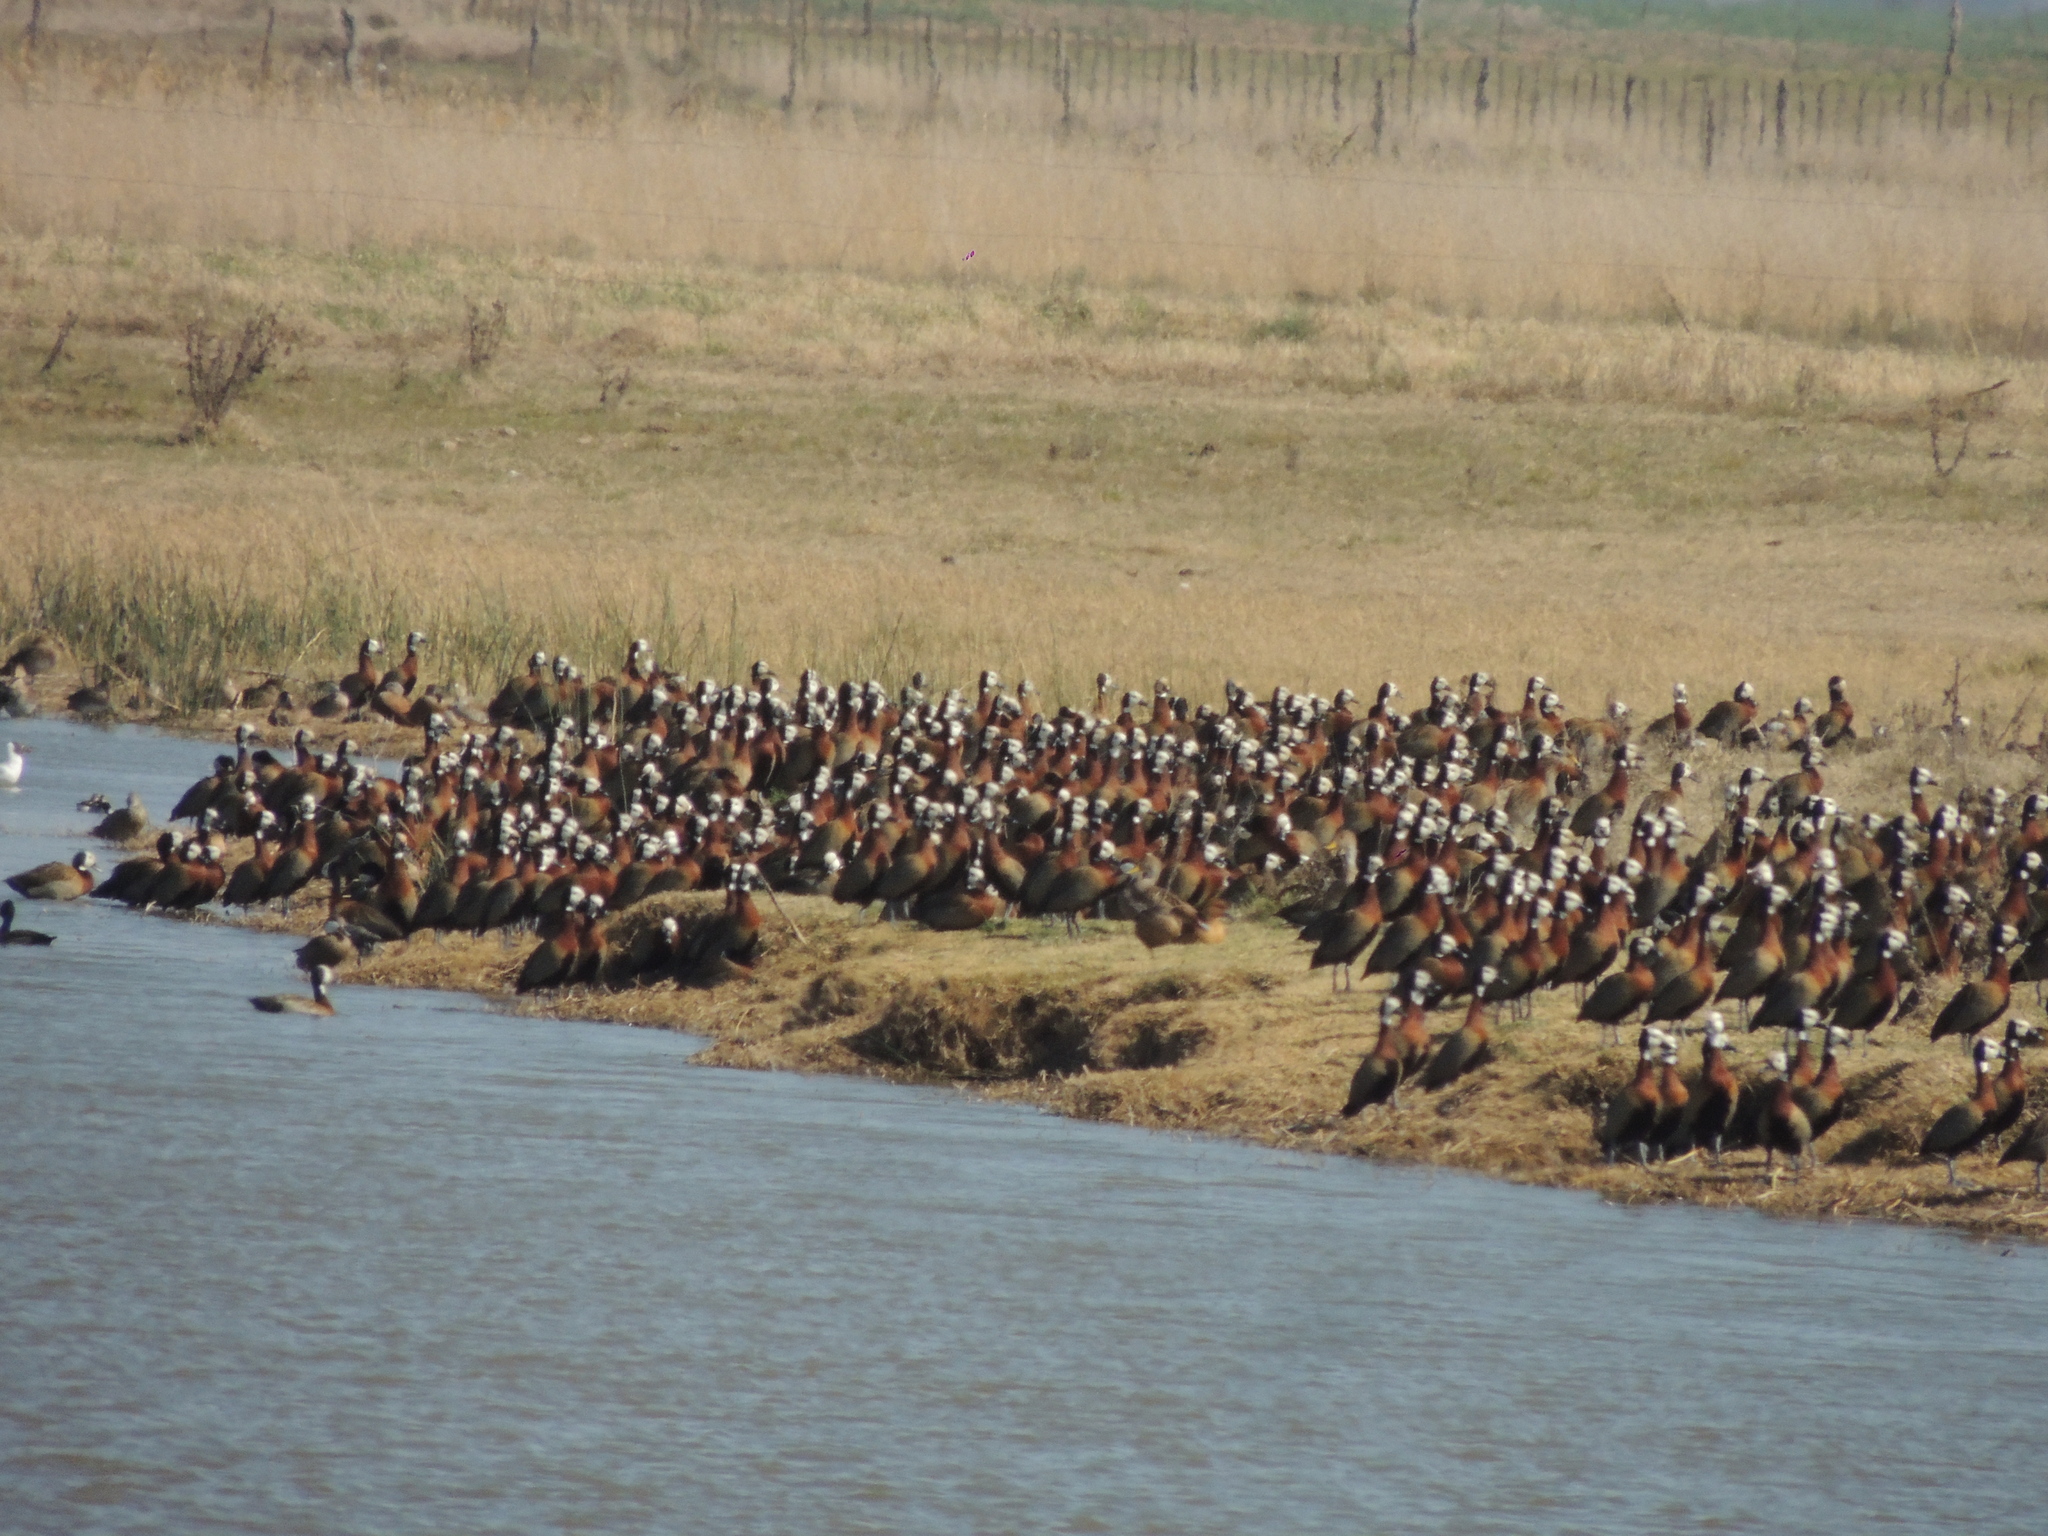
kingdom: Animalia
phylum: Chordata
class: Aves
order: Anseriformes
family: Anatidae
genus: Dendrocygna
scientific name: Dendrocygna viduata
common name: White-faced whistling duck
